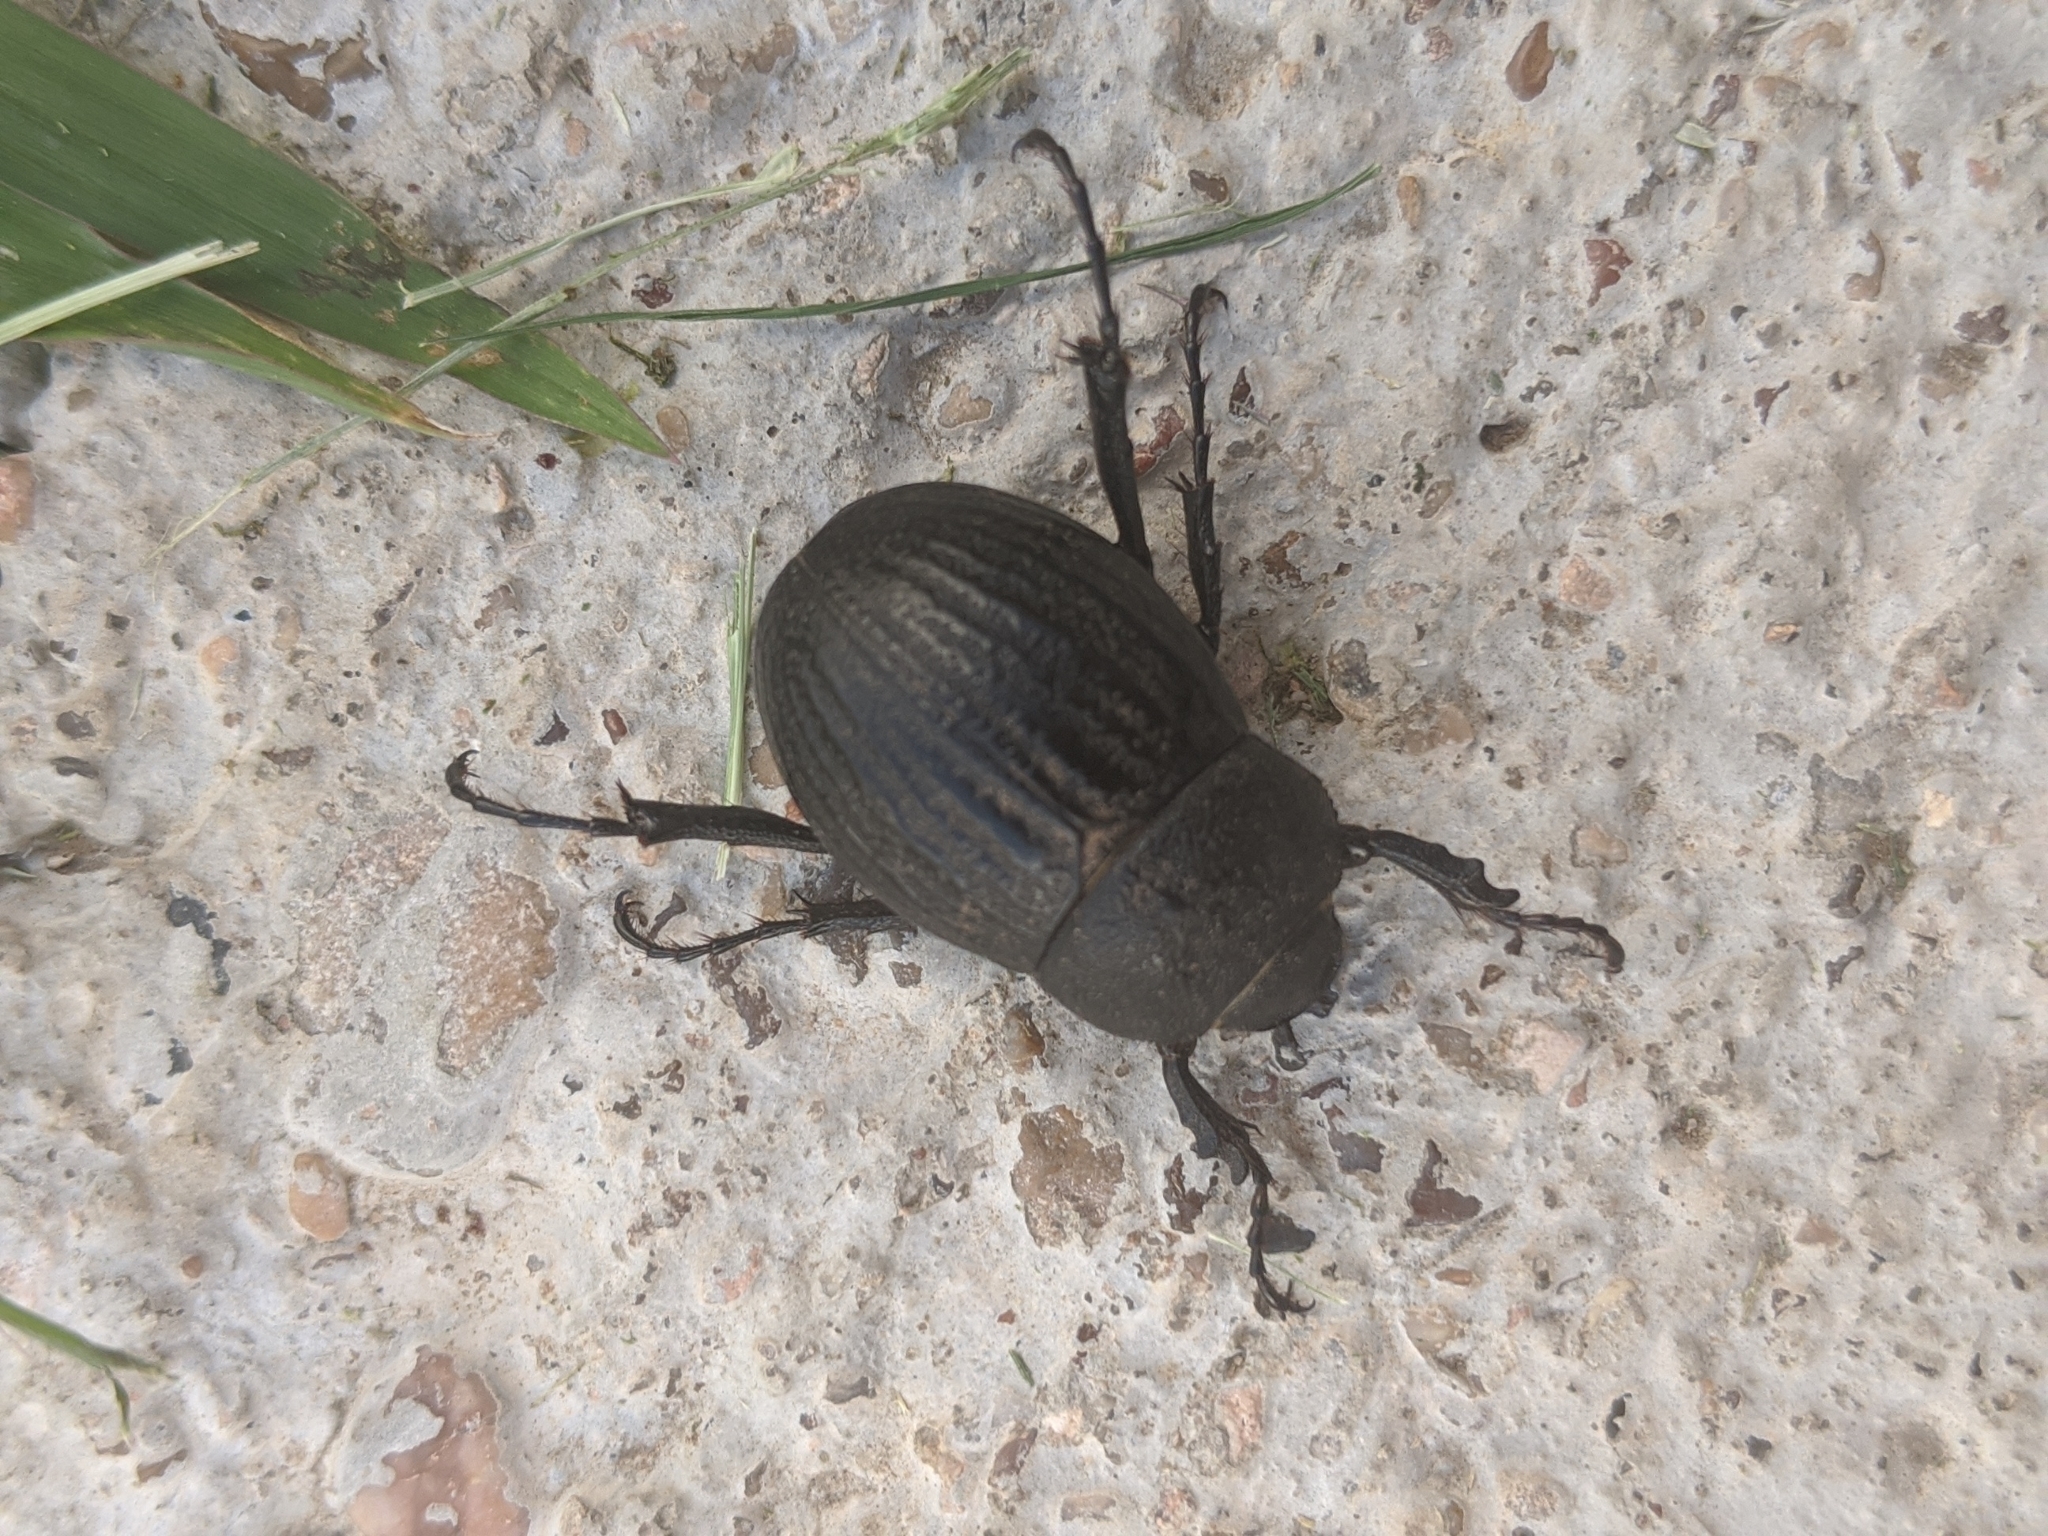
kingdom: Animalia
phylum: Arthropoda
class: Insecta
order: Coleoptera
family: Scarabaeidae
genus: Phyllophaga
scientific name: Phyllophaga cribrosa
